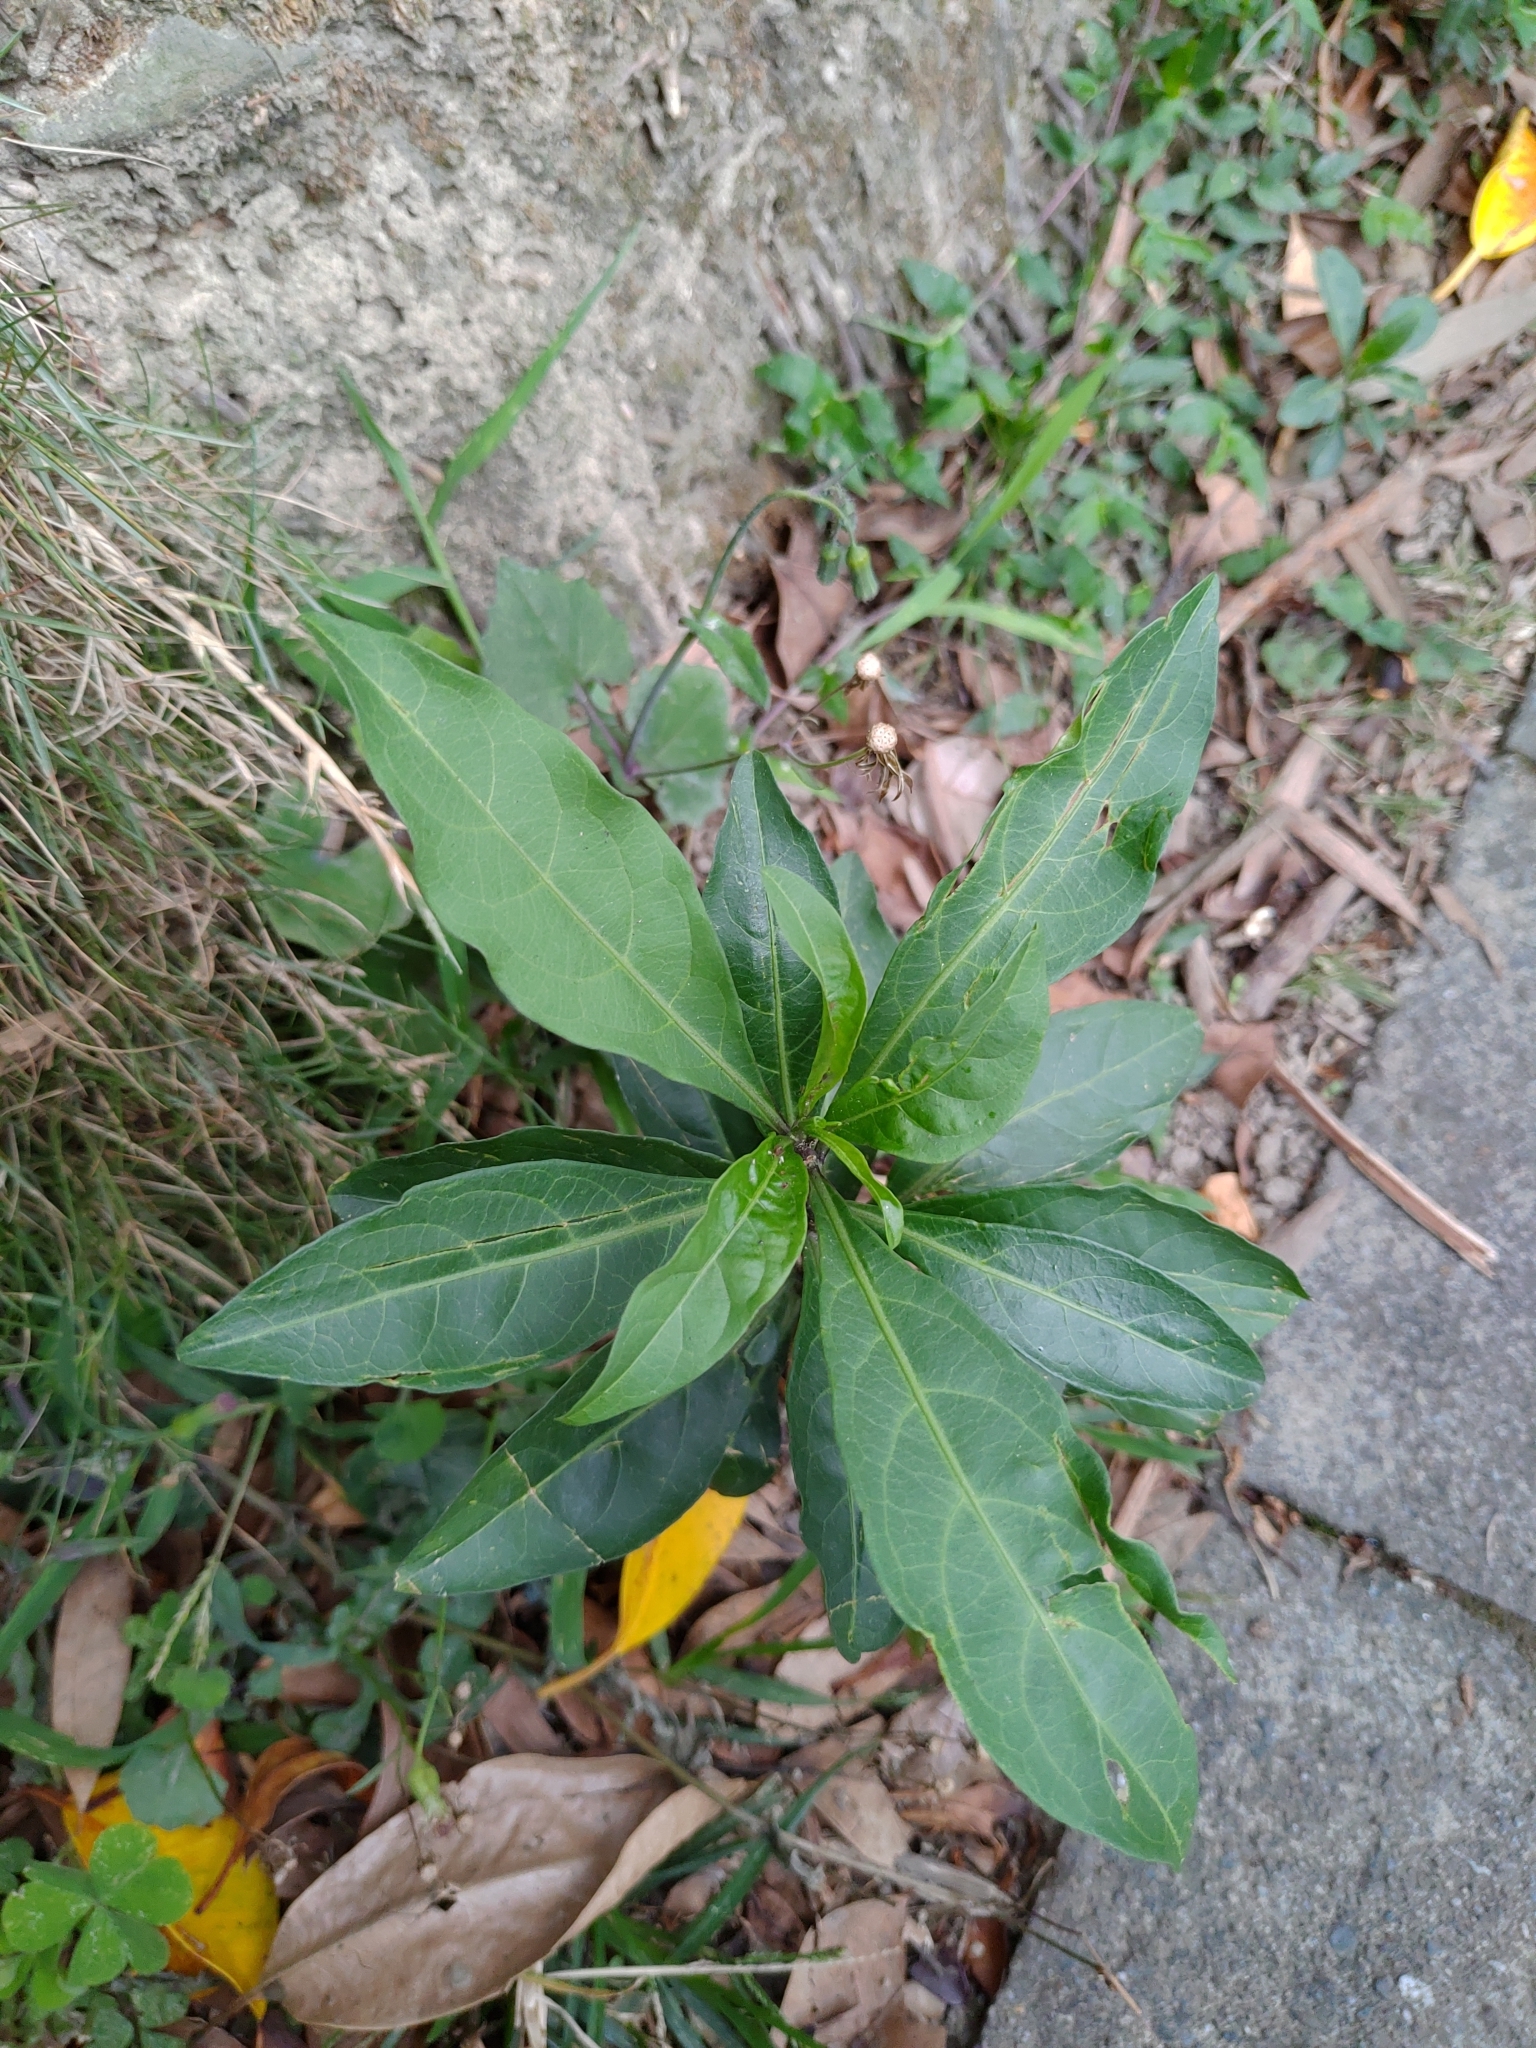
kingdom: Plantae
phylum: Tracheophyta
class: Magnoliopsida
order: Solanales
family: Solanaceae
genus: Solanum
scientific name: Solanum diphyllum
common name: Twoleaf nightshade
